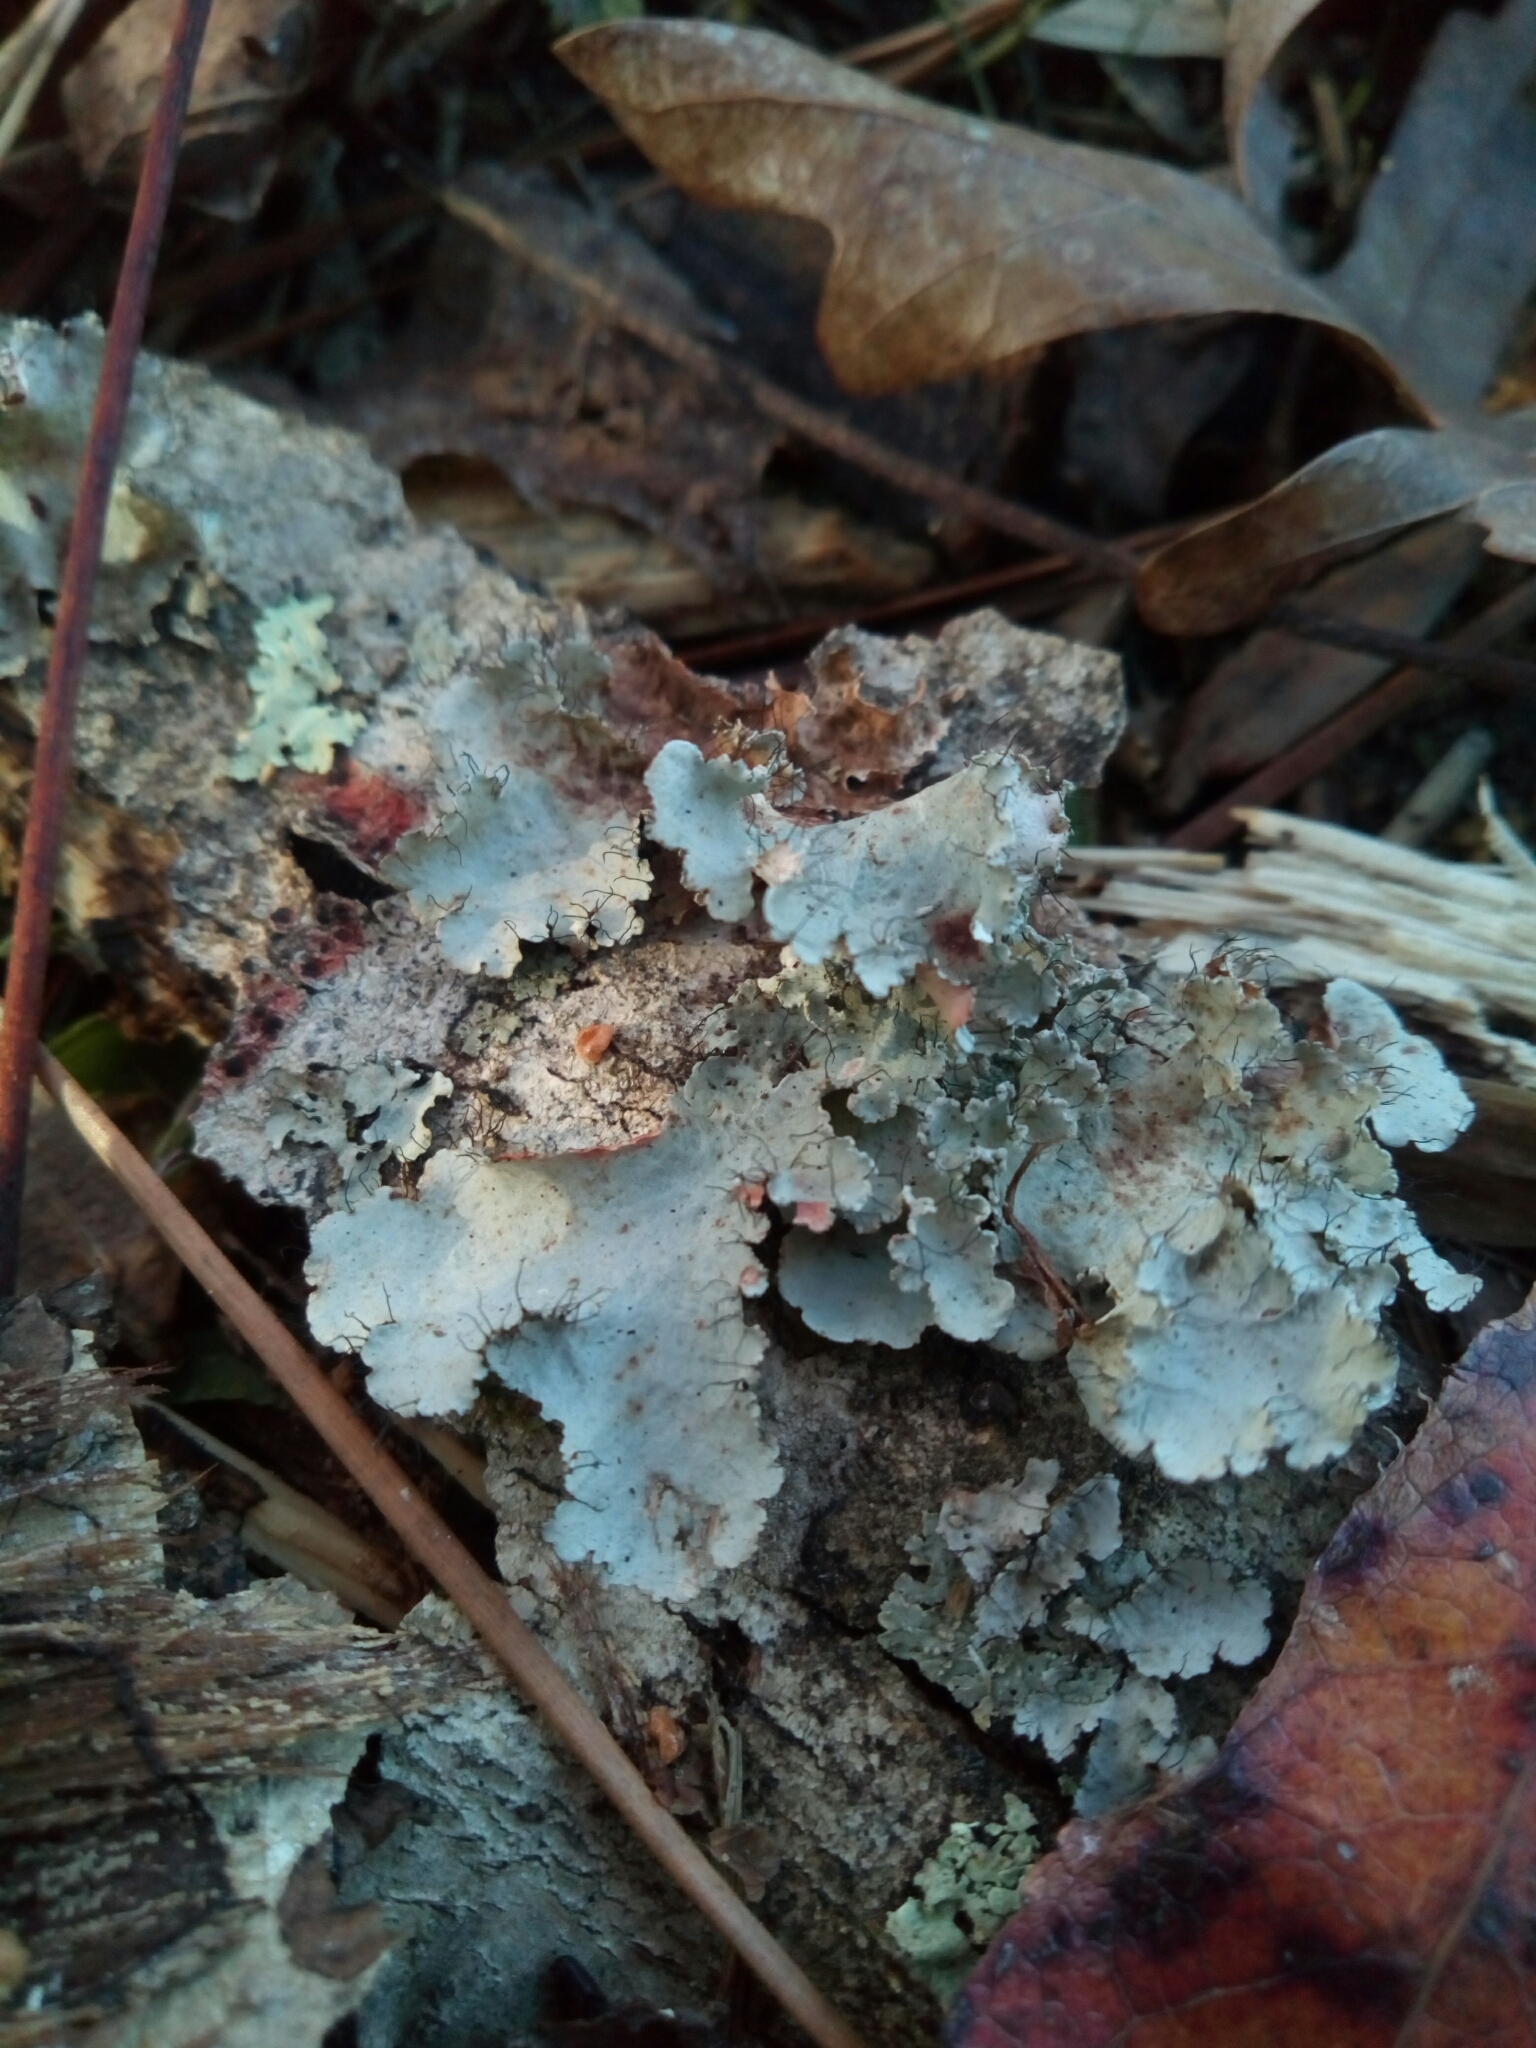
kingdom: Fungi
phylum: Ascomycota
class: Lecanoromycetes
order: Lecanorales
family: Parmeliaceae
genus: Parmotrema
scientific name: Parmotrema hypotropum
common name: Powdered ruffle lichen
